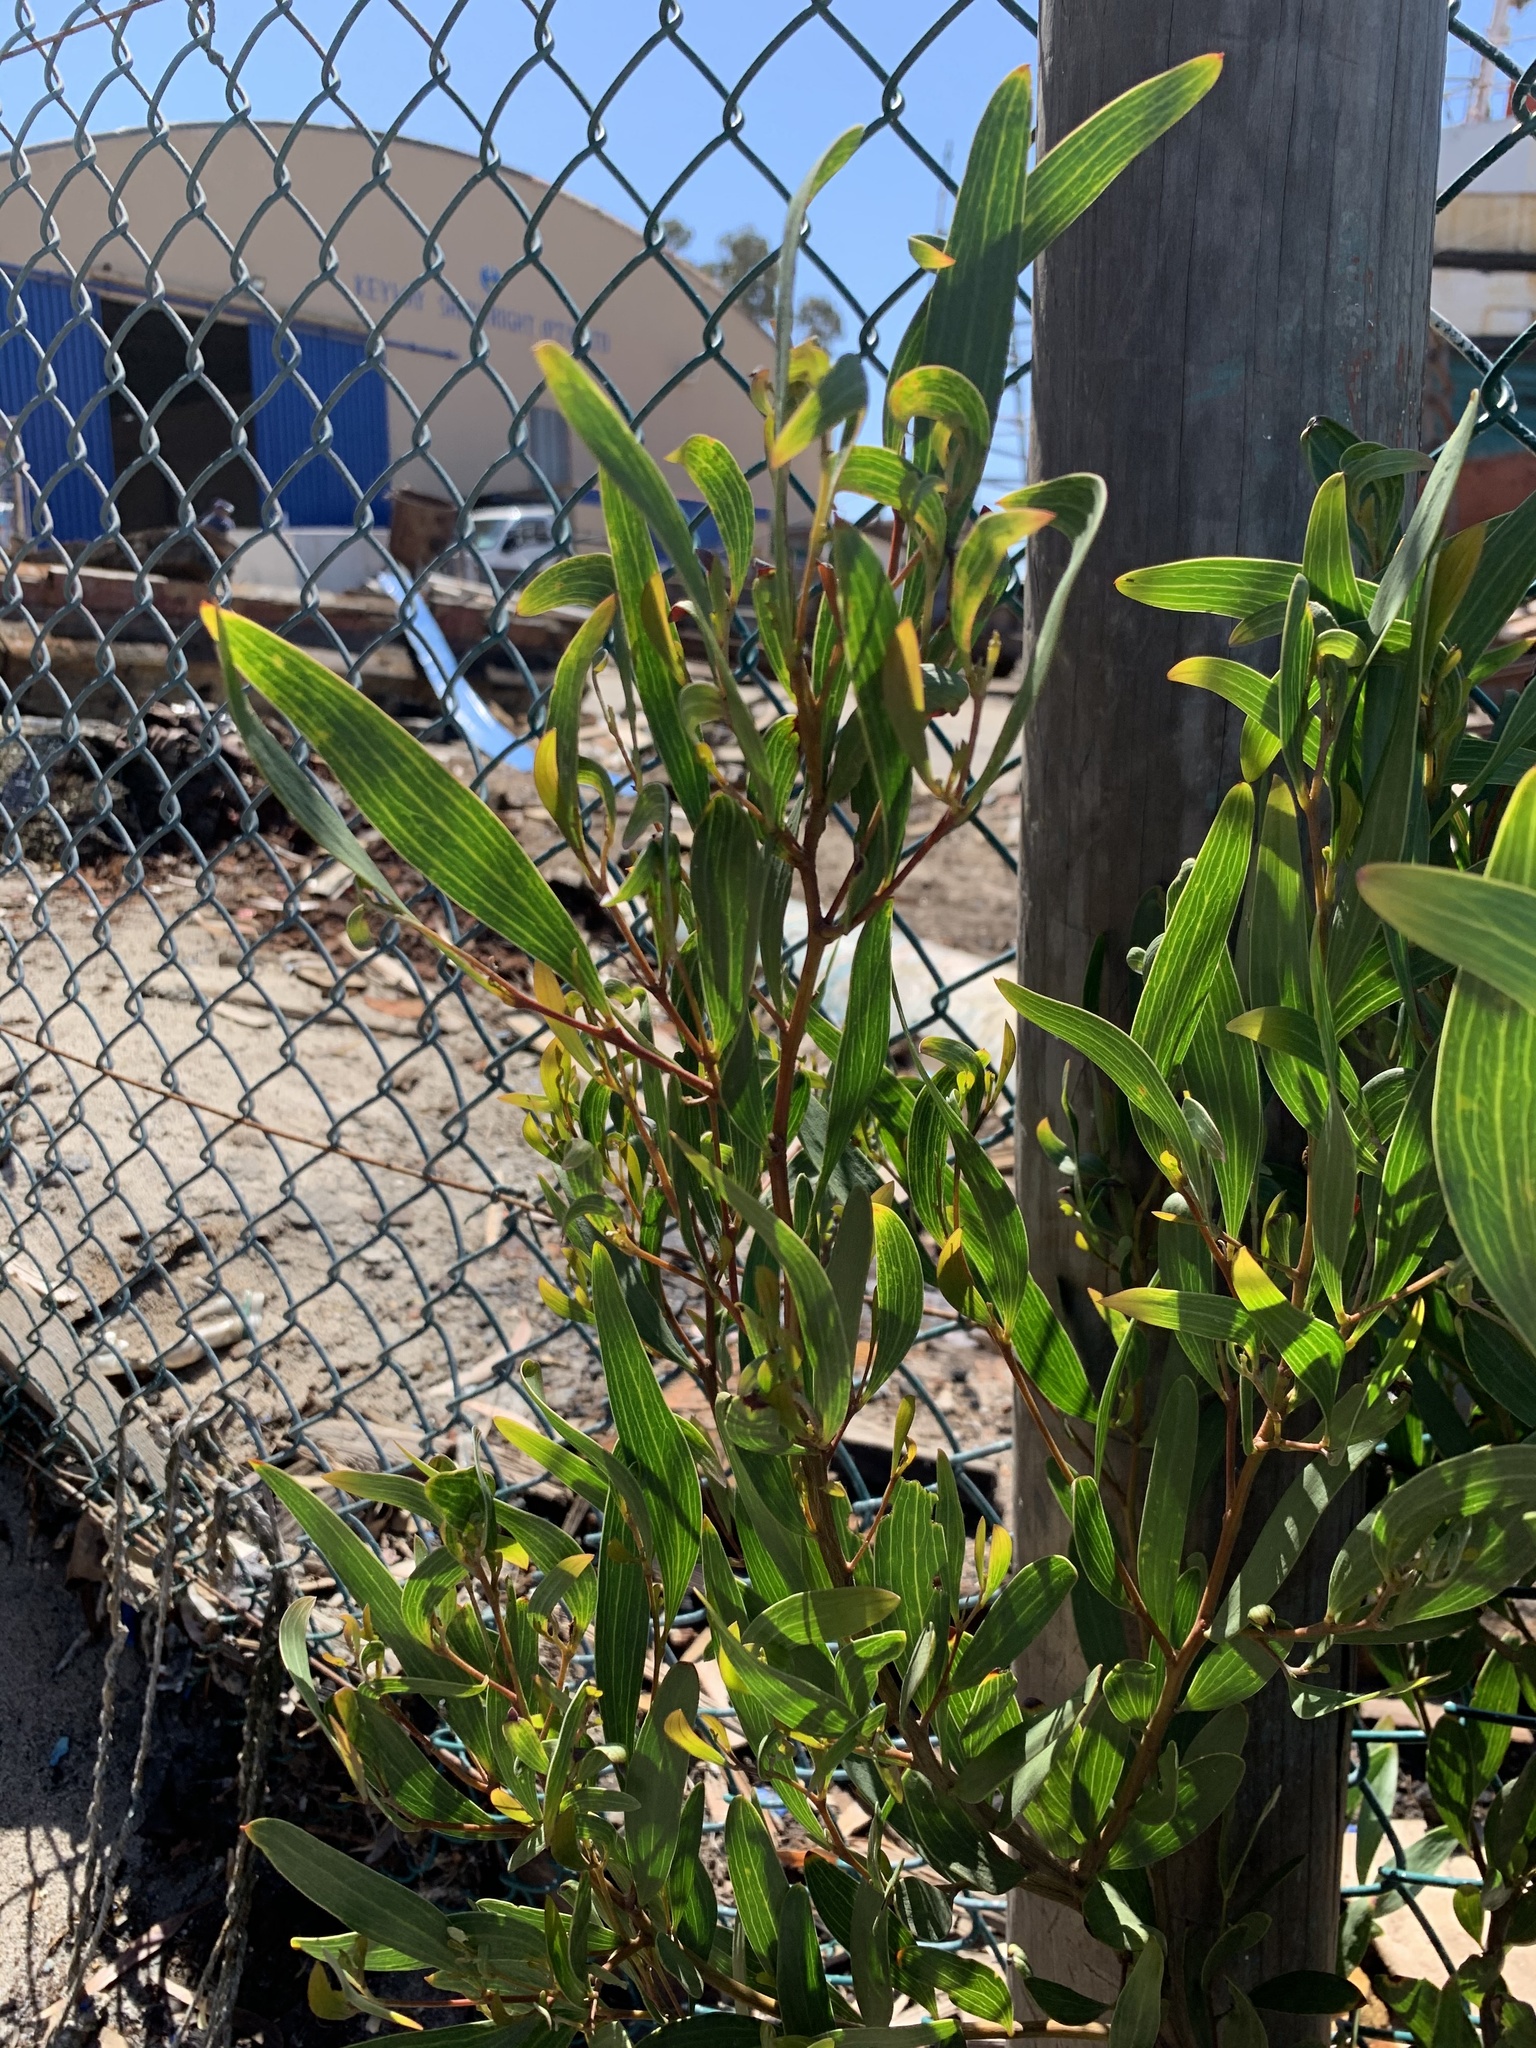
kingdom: Plantae
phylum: Tracheophyta
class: Magnoliopsida
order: Fabales
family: Fabaceae
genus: Acacia
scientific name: Acacia cyclops
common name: Coastal wattle
